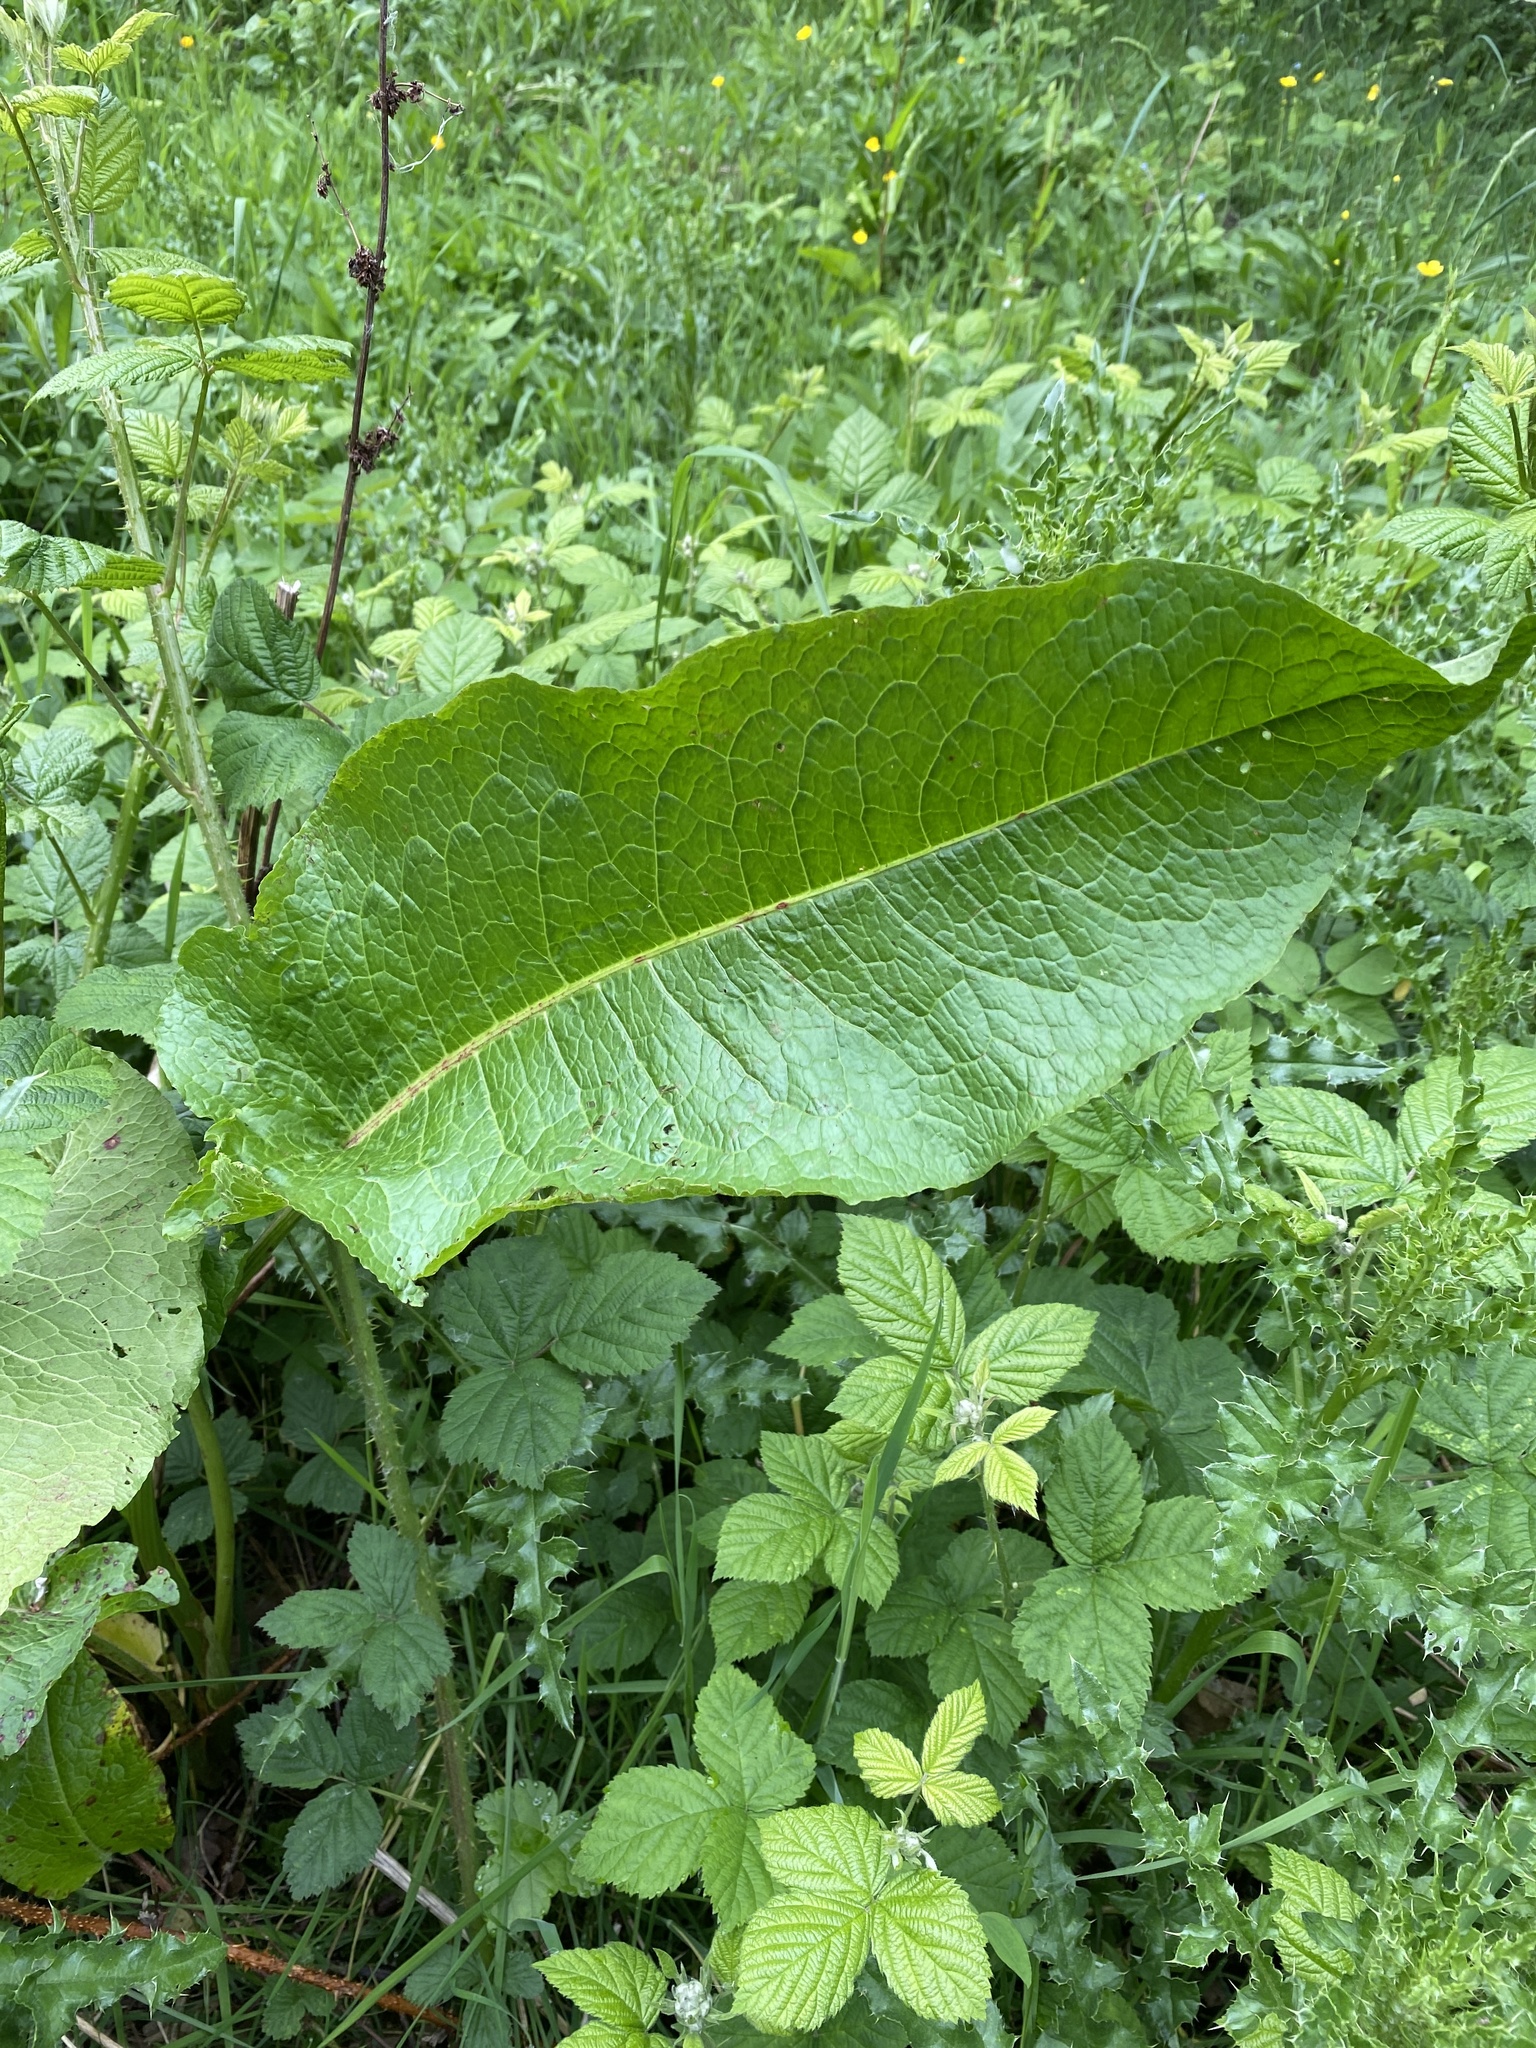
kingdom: Plantae
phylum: Tracheophyta
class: Magnoliopsida
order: Caryophyllales
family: Polygonaceae
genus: Rumex
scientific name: Rumex obtusifolius
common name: Bitter dock
